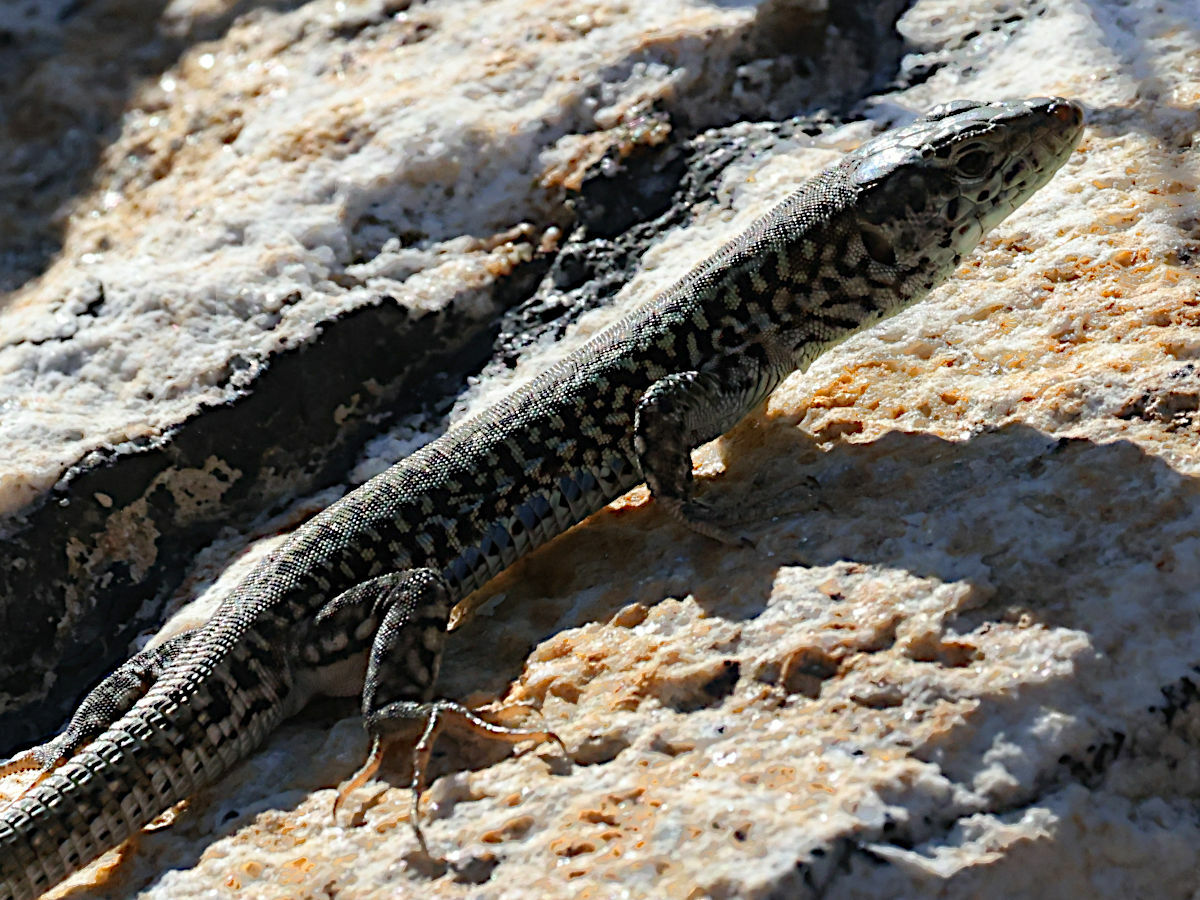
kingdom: Animalia
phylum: Chordata
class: Squamata
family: Lacertidae
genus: Podarcis
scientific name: Podarcis erhardii
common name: Erhard's wall lizard
